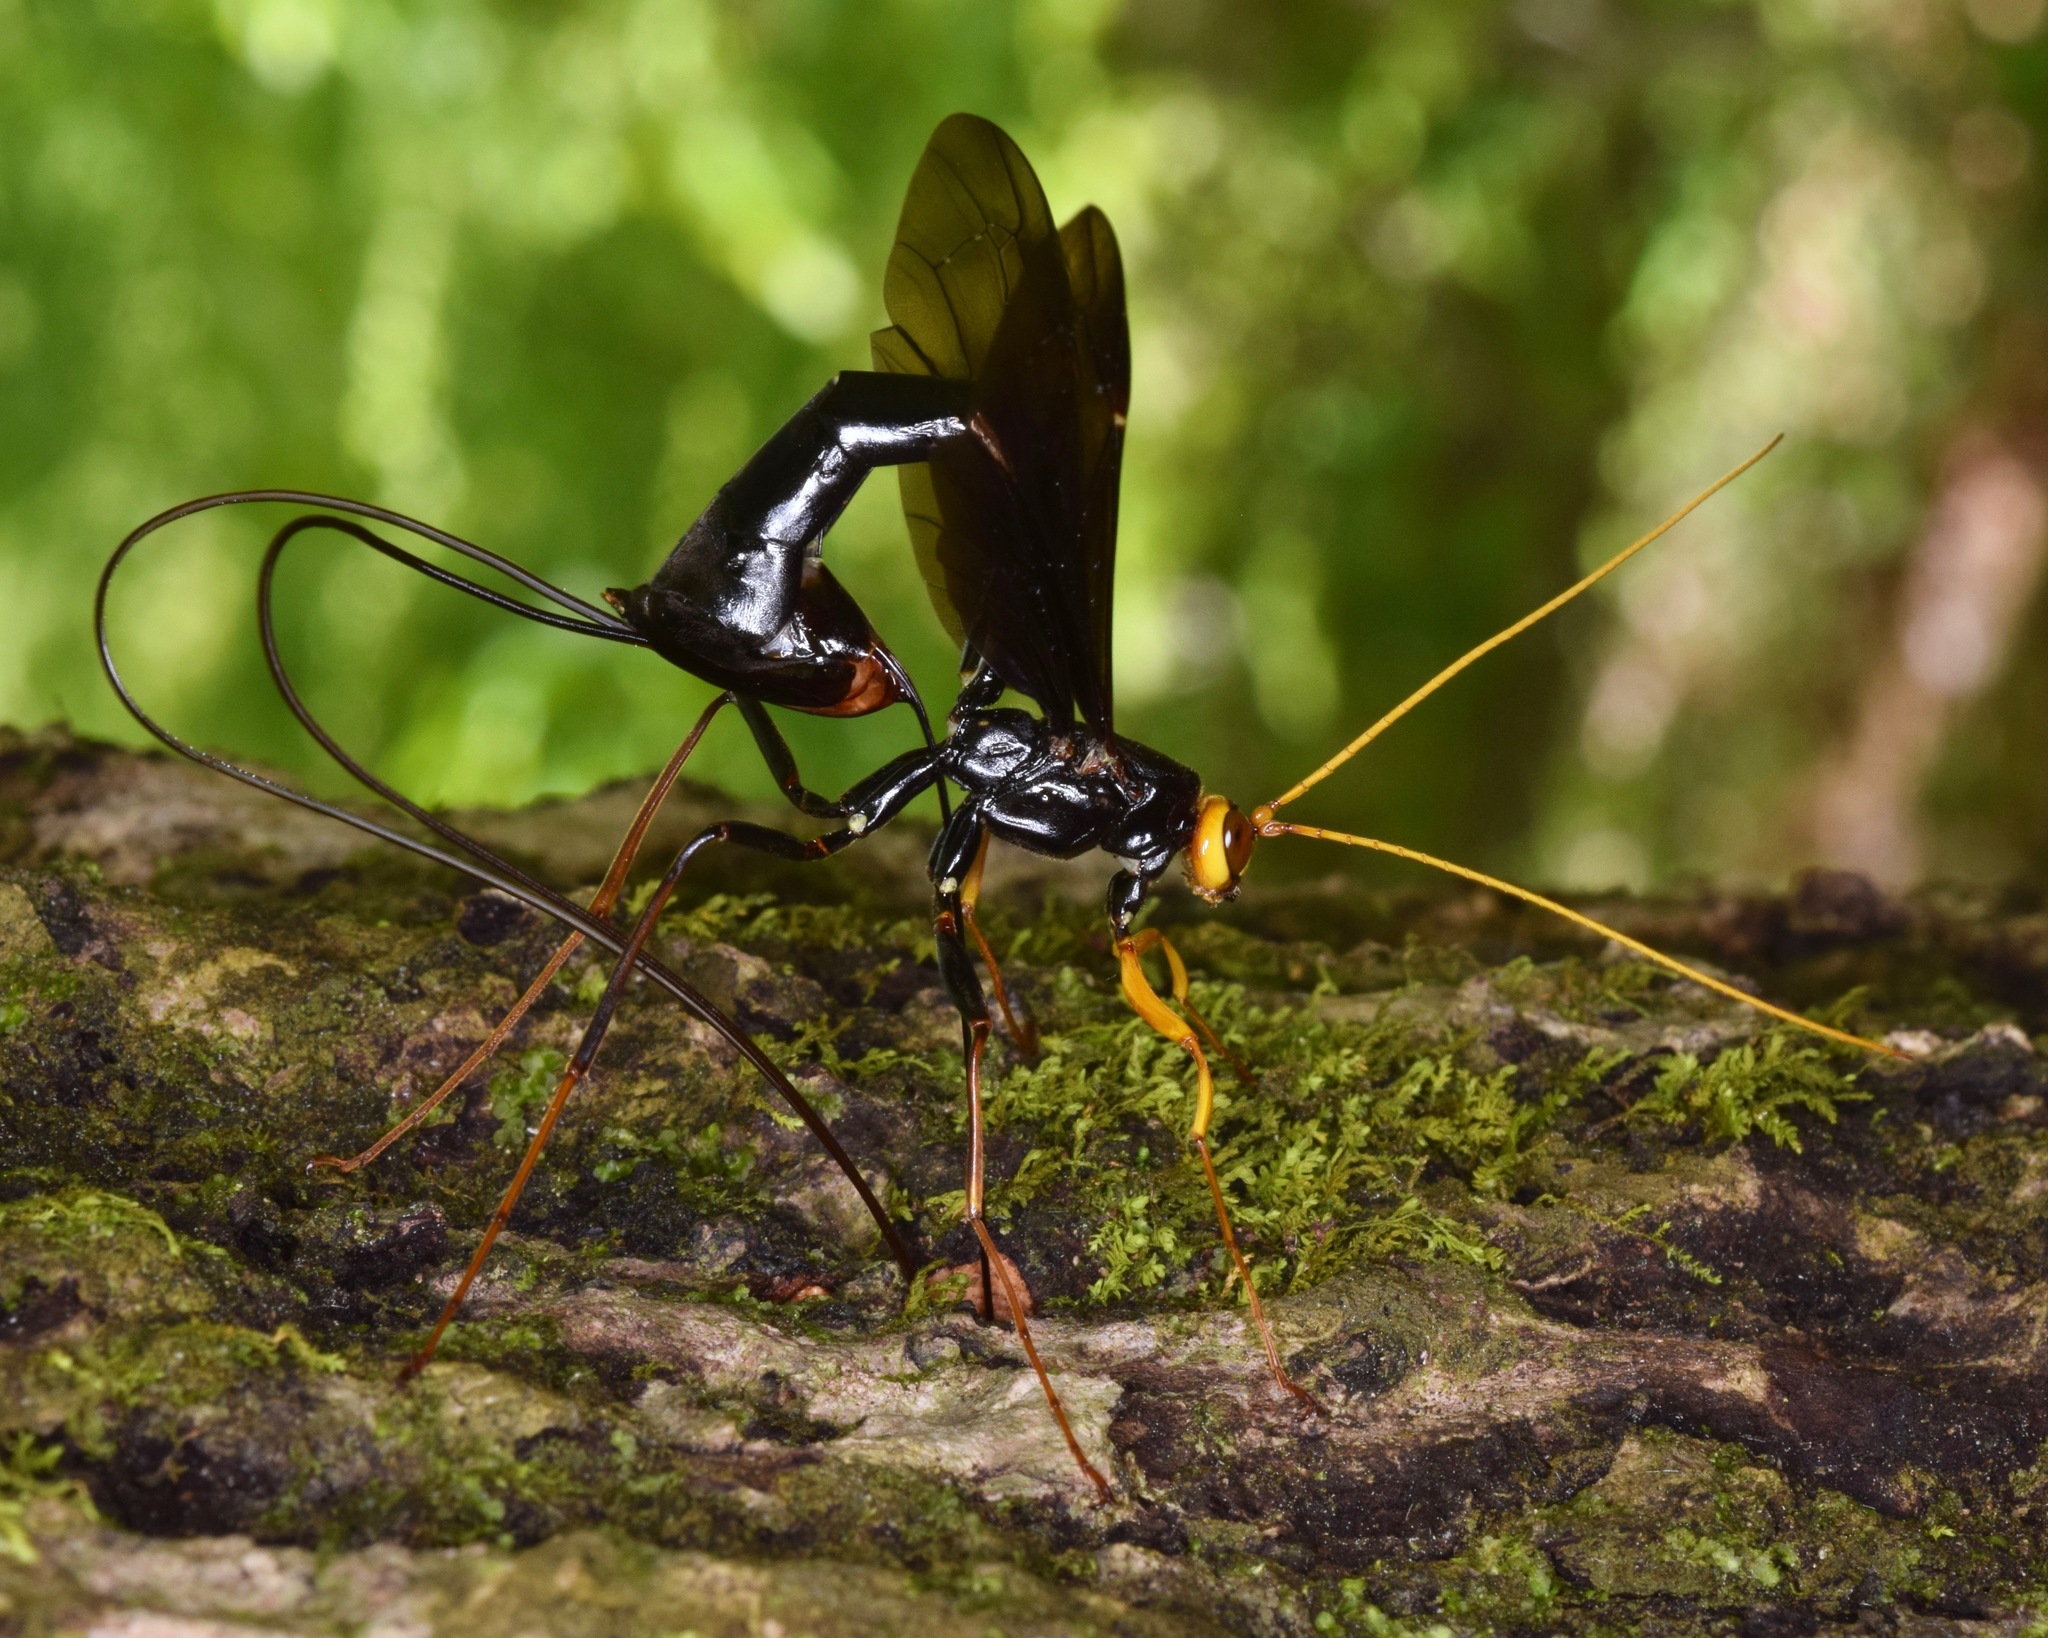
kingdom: Animalia
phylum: Arthropoda
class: Insecta
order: Hymenoptera
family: Ichneumonidae
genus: Megarhyssa
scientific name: Megarhyssa atrata
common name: Black giant ichneumonid wasp
